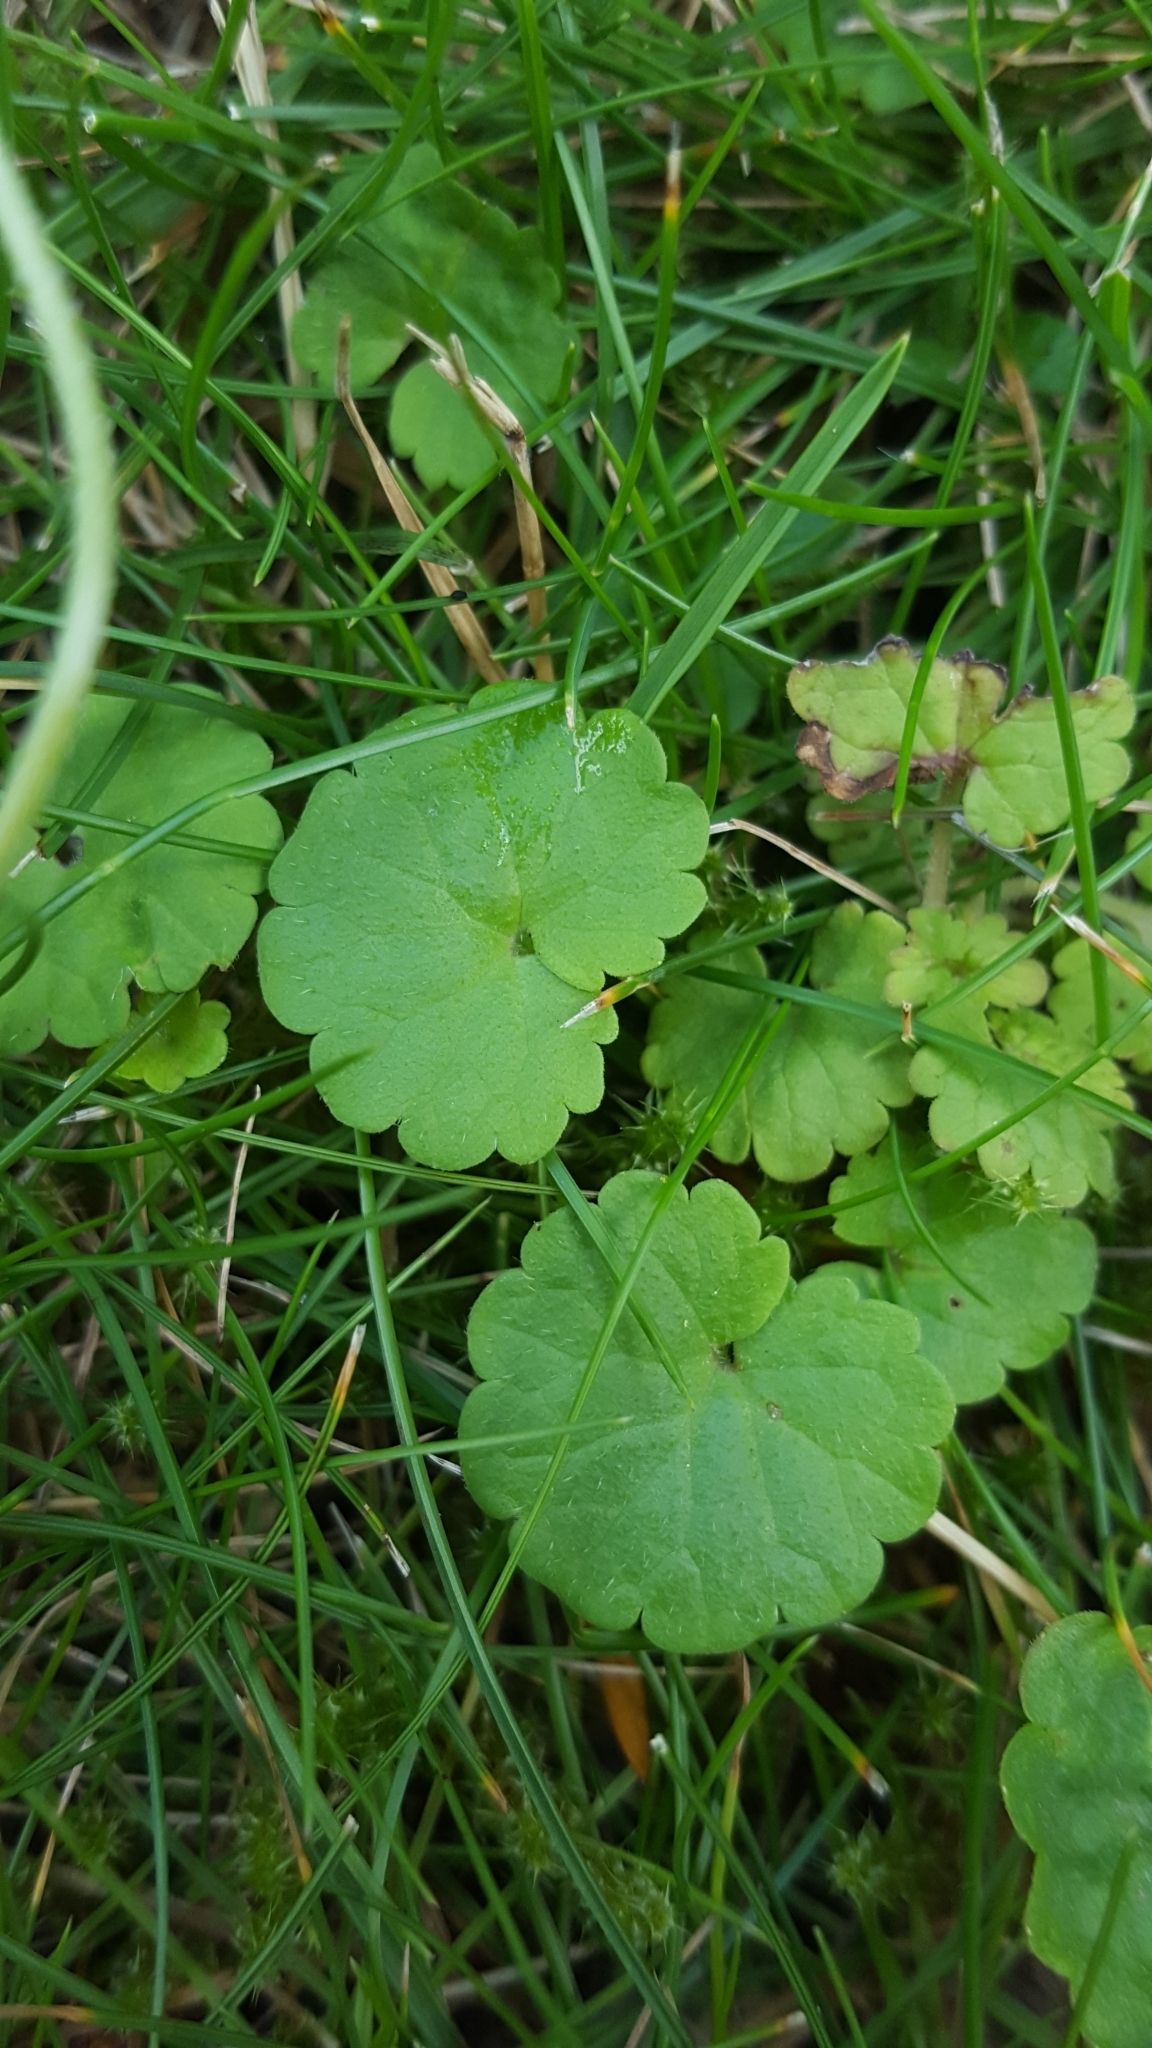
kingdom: Plantae
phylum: Tracheophyta
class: Magnoliopsida
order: Lamiales
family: Lamiaceae
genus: Glechoma
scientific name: Glechoma hederacea
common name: Ground ivy
